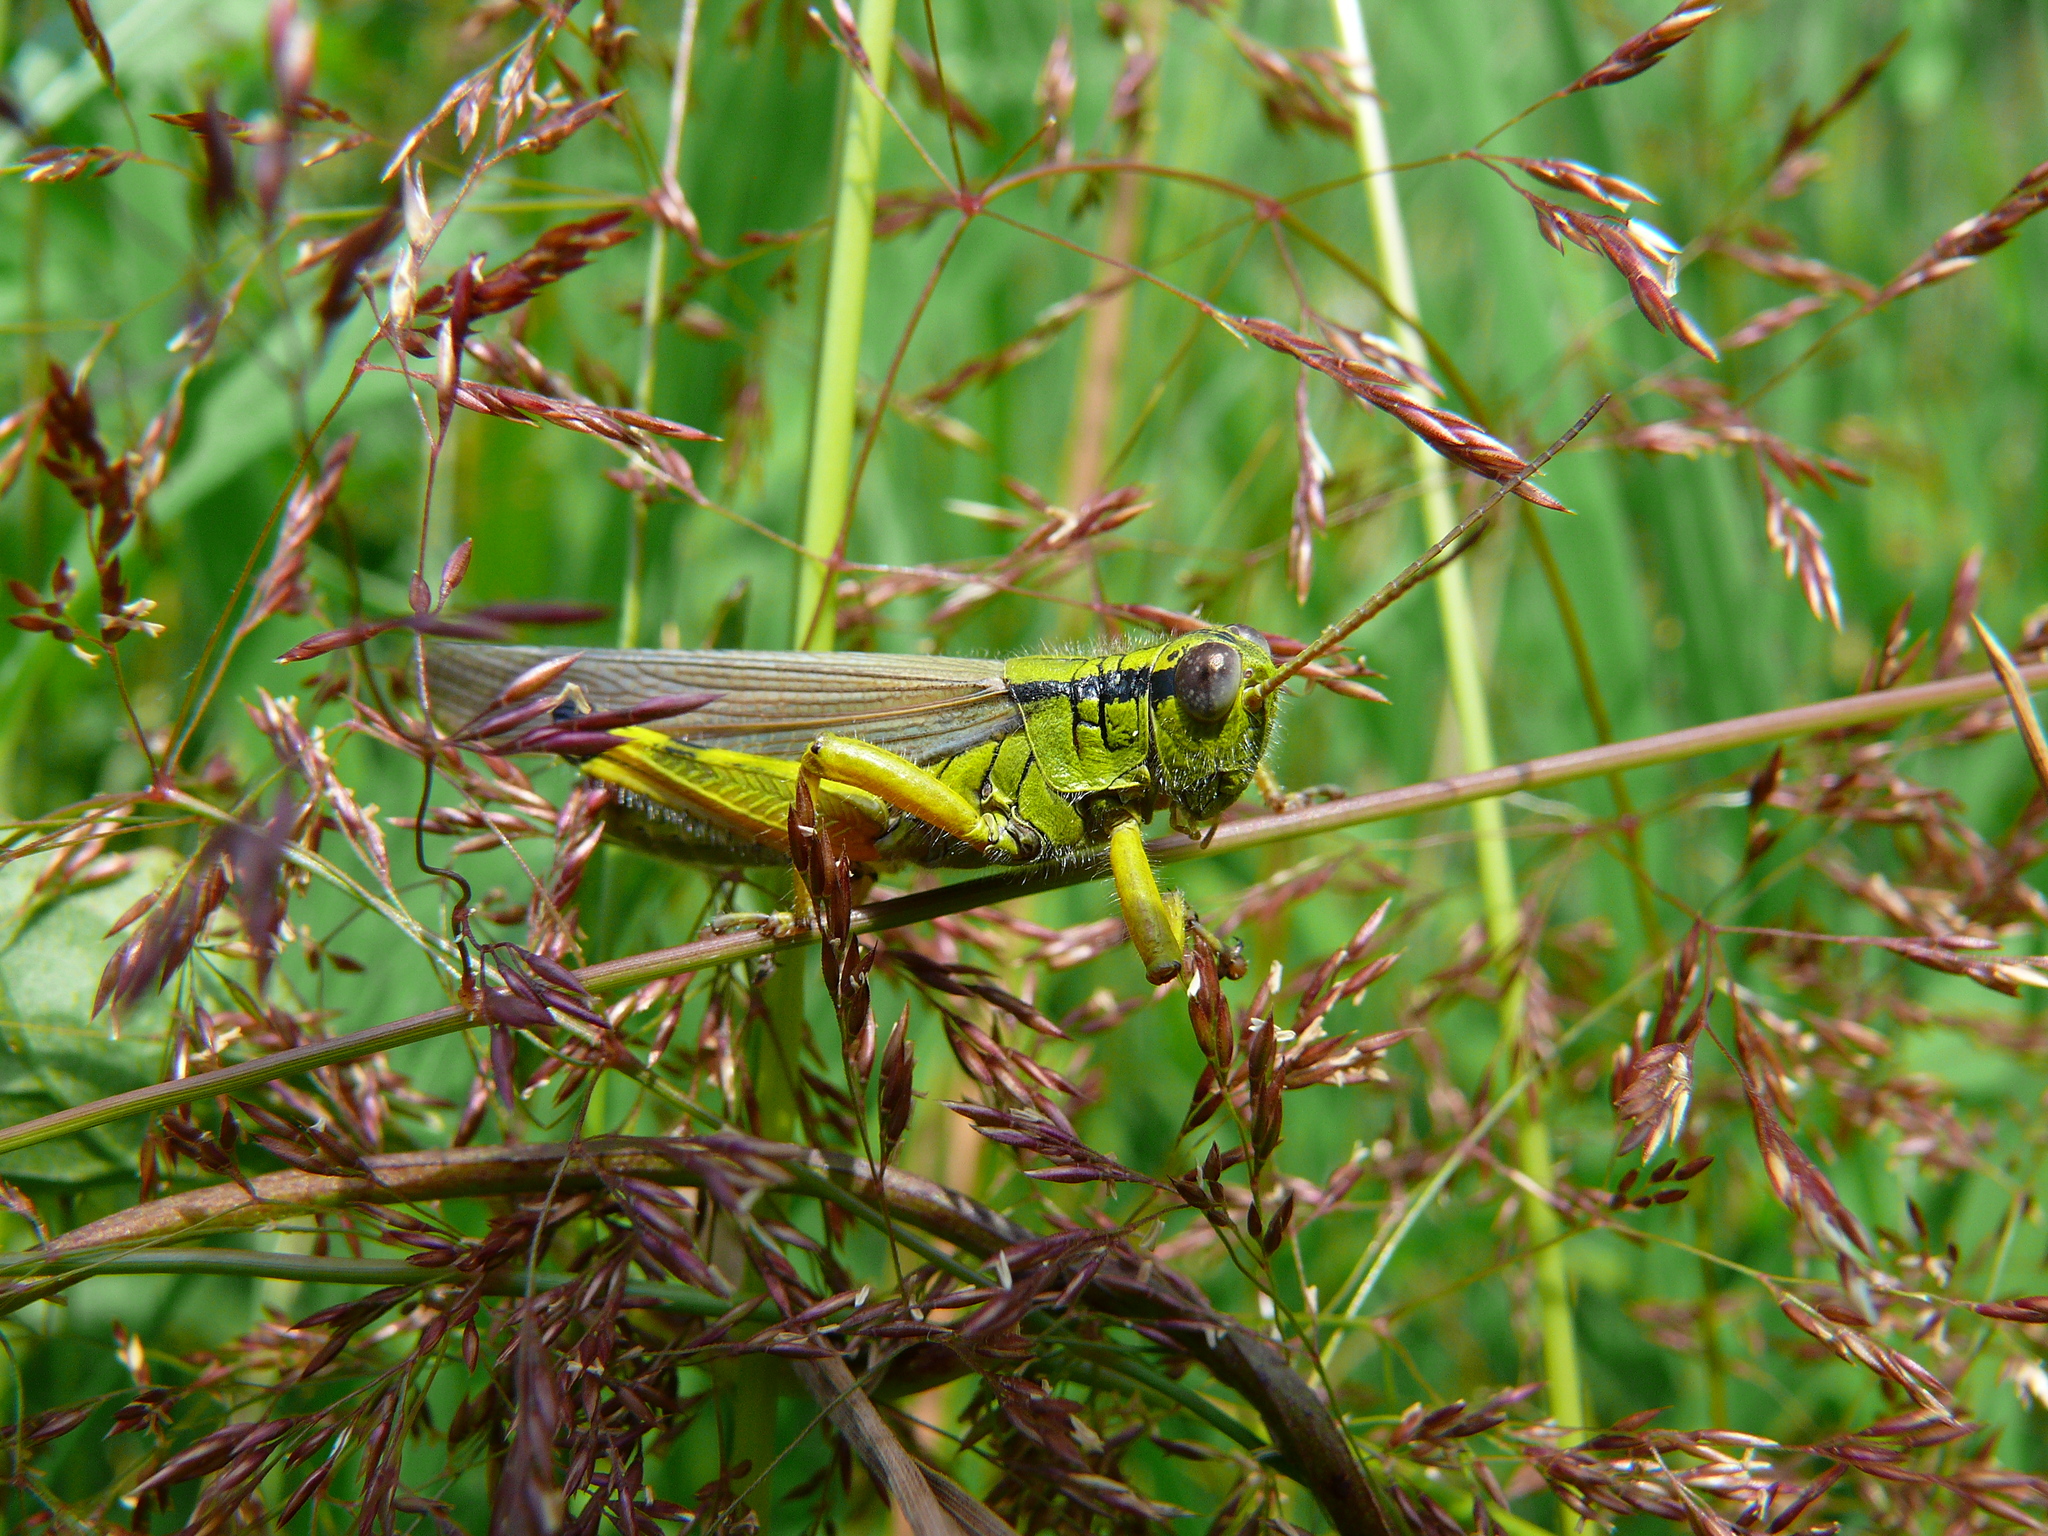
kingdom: Animalia
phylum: Arthropoda
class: Insecta
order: Orthoptera
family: Acrididae
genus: Confusacris
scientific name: Confusacris longipennis
